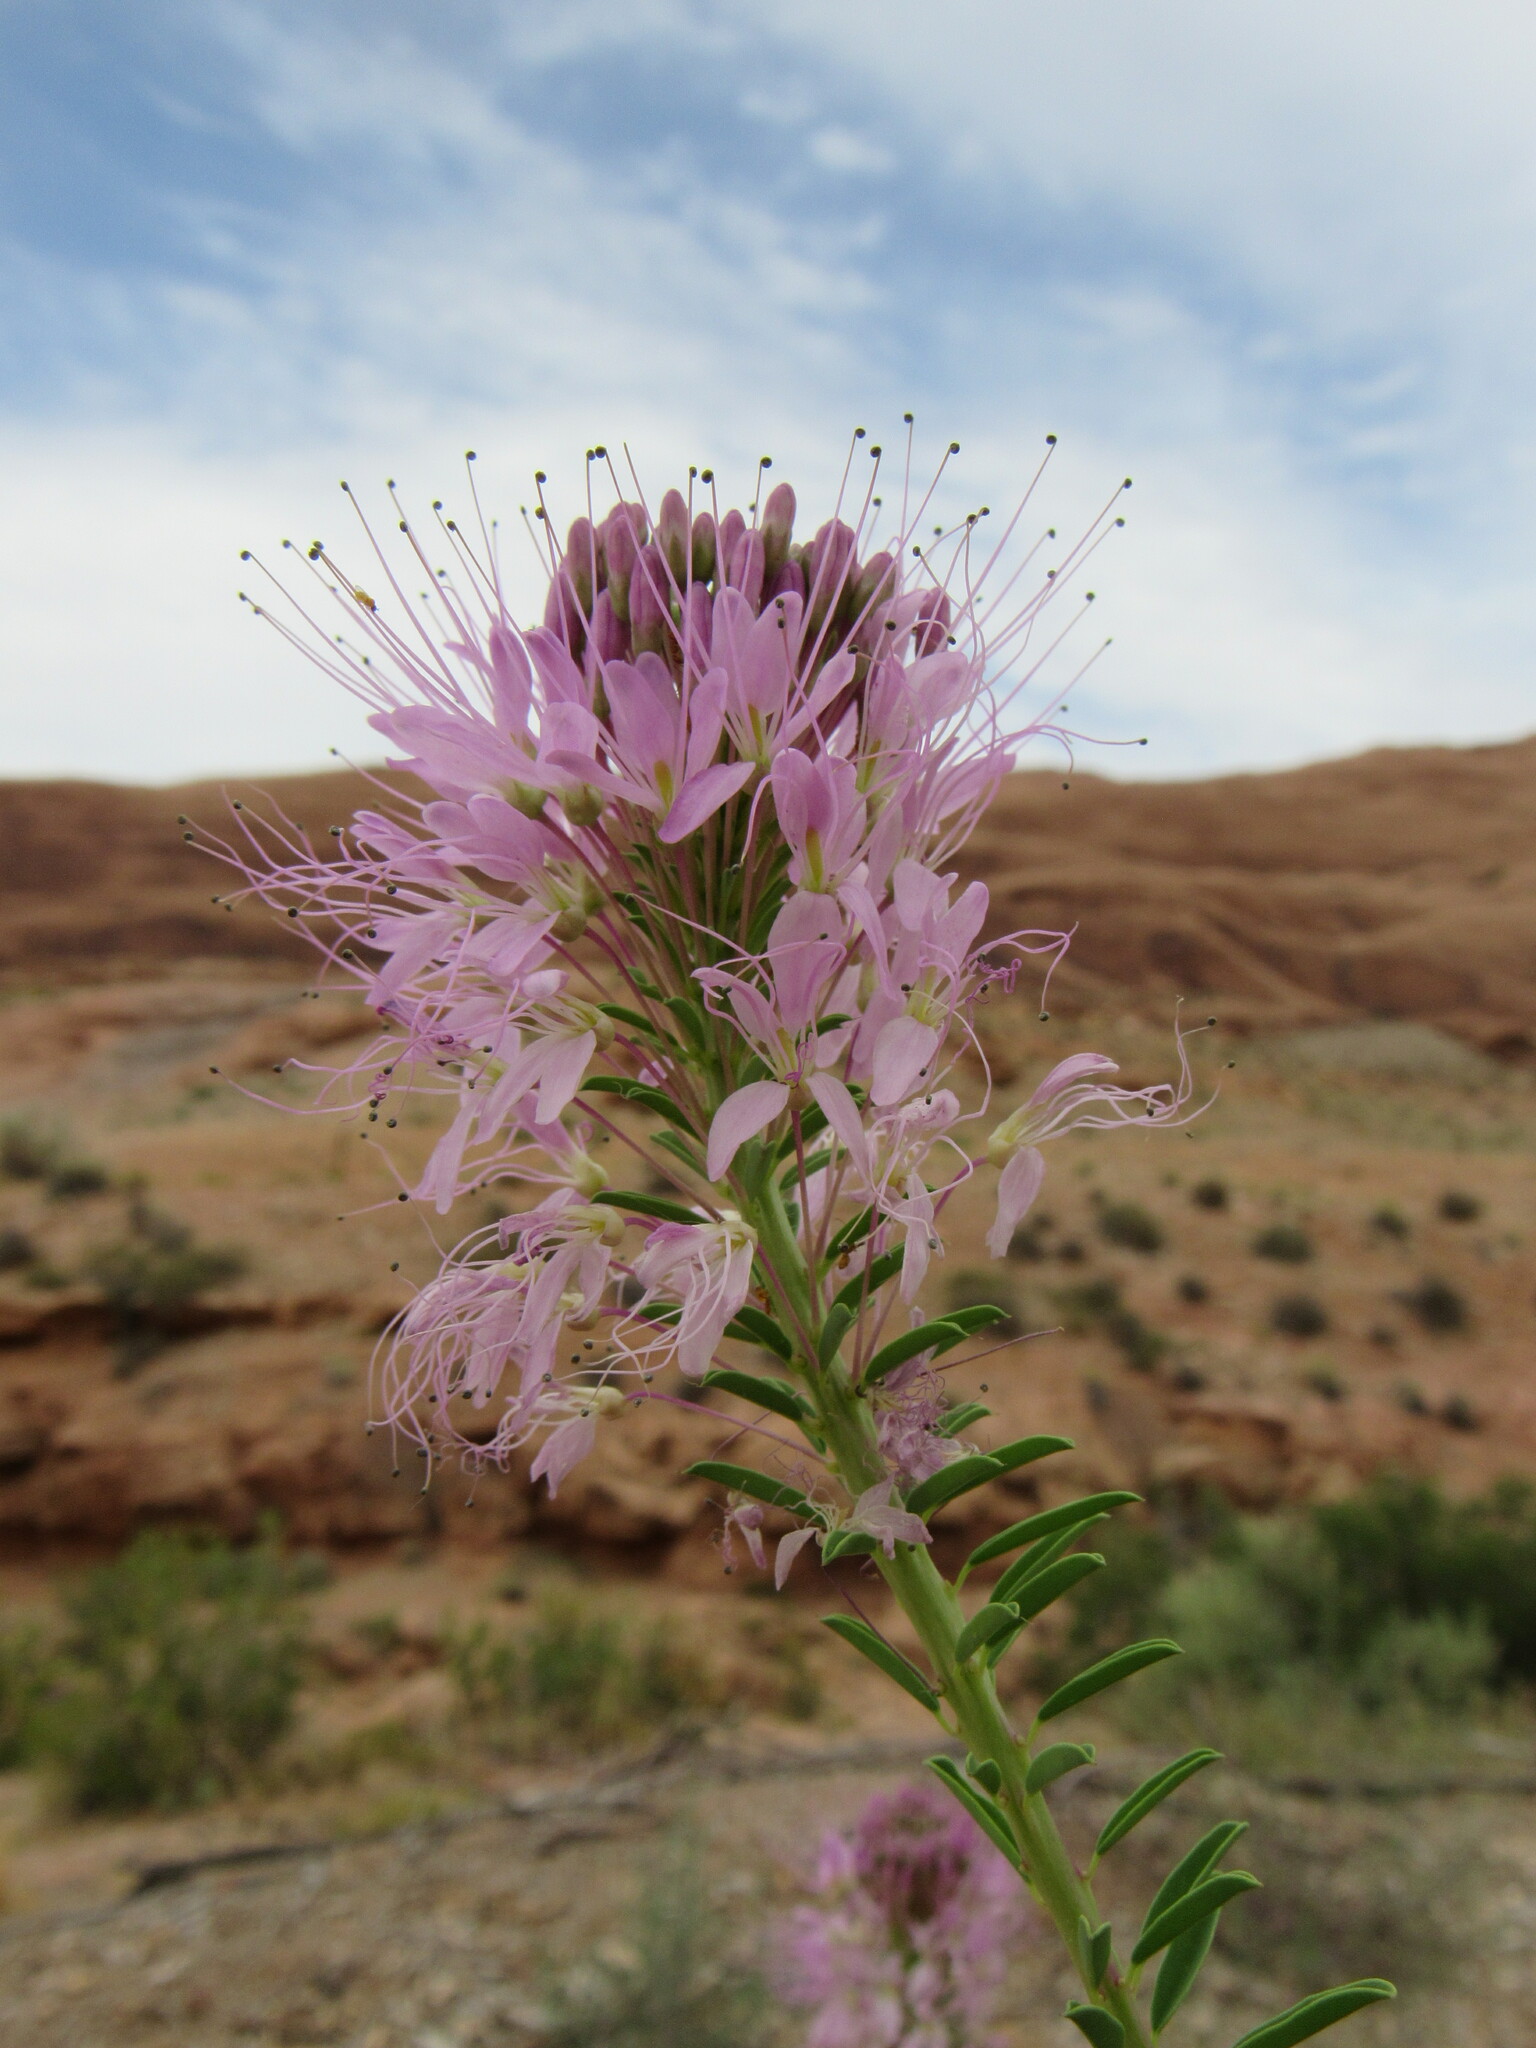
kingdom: Plantae
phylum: Tracheophyta
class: Magnoliopsida
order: Brassicales
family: Cleomaceae
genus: Cleomella
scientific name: Cleomella serrulata
